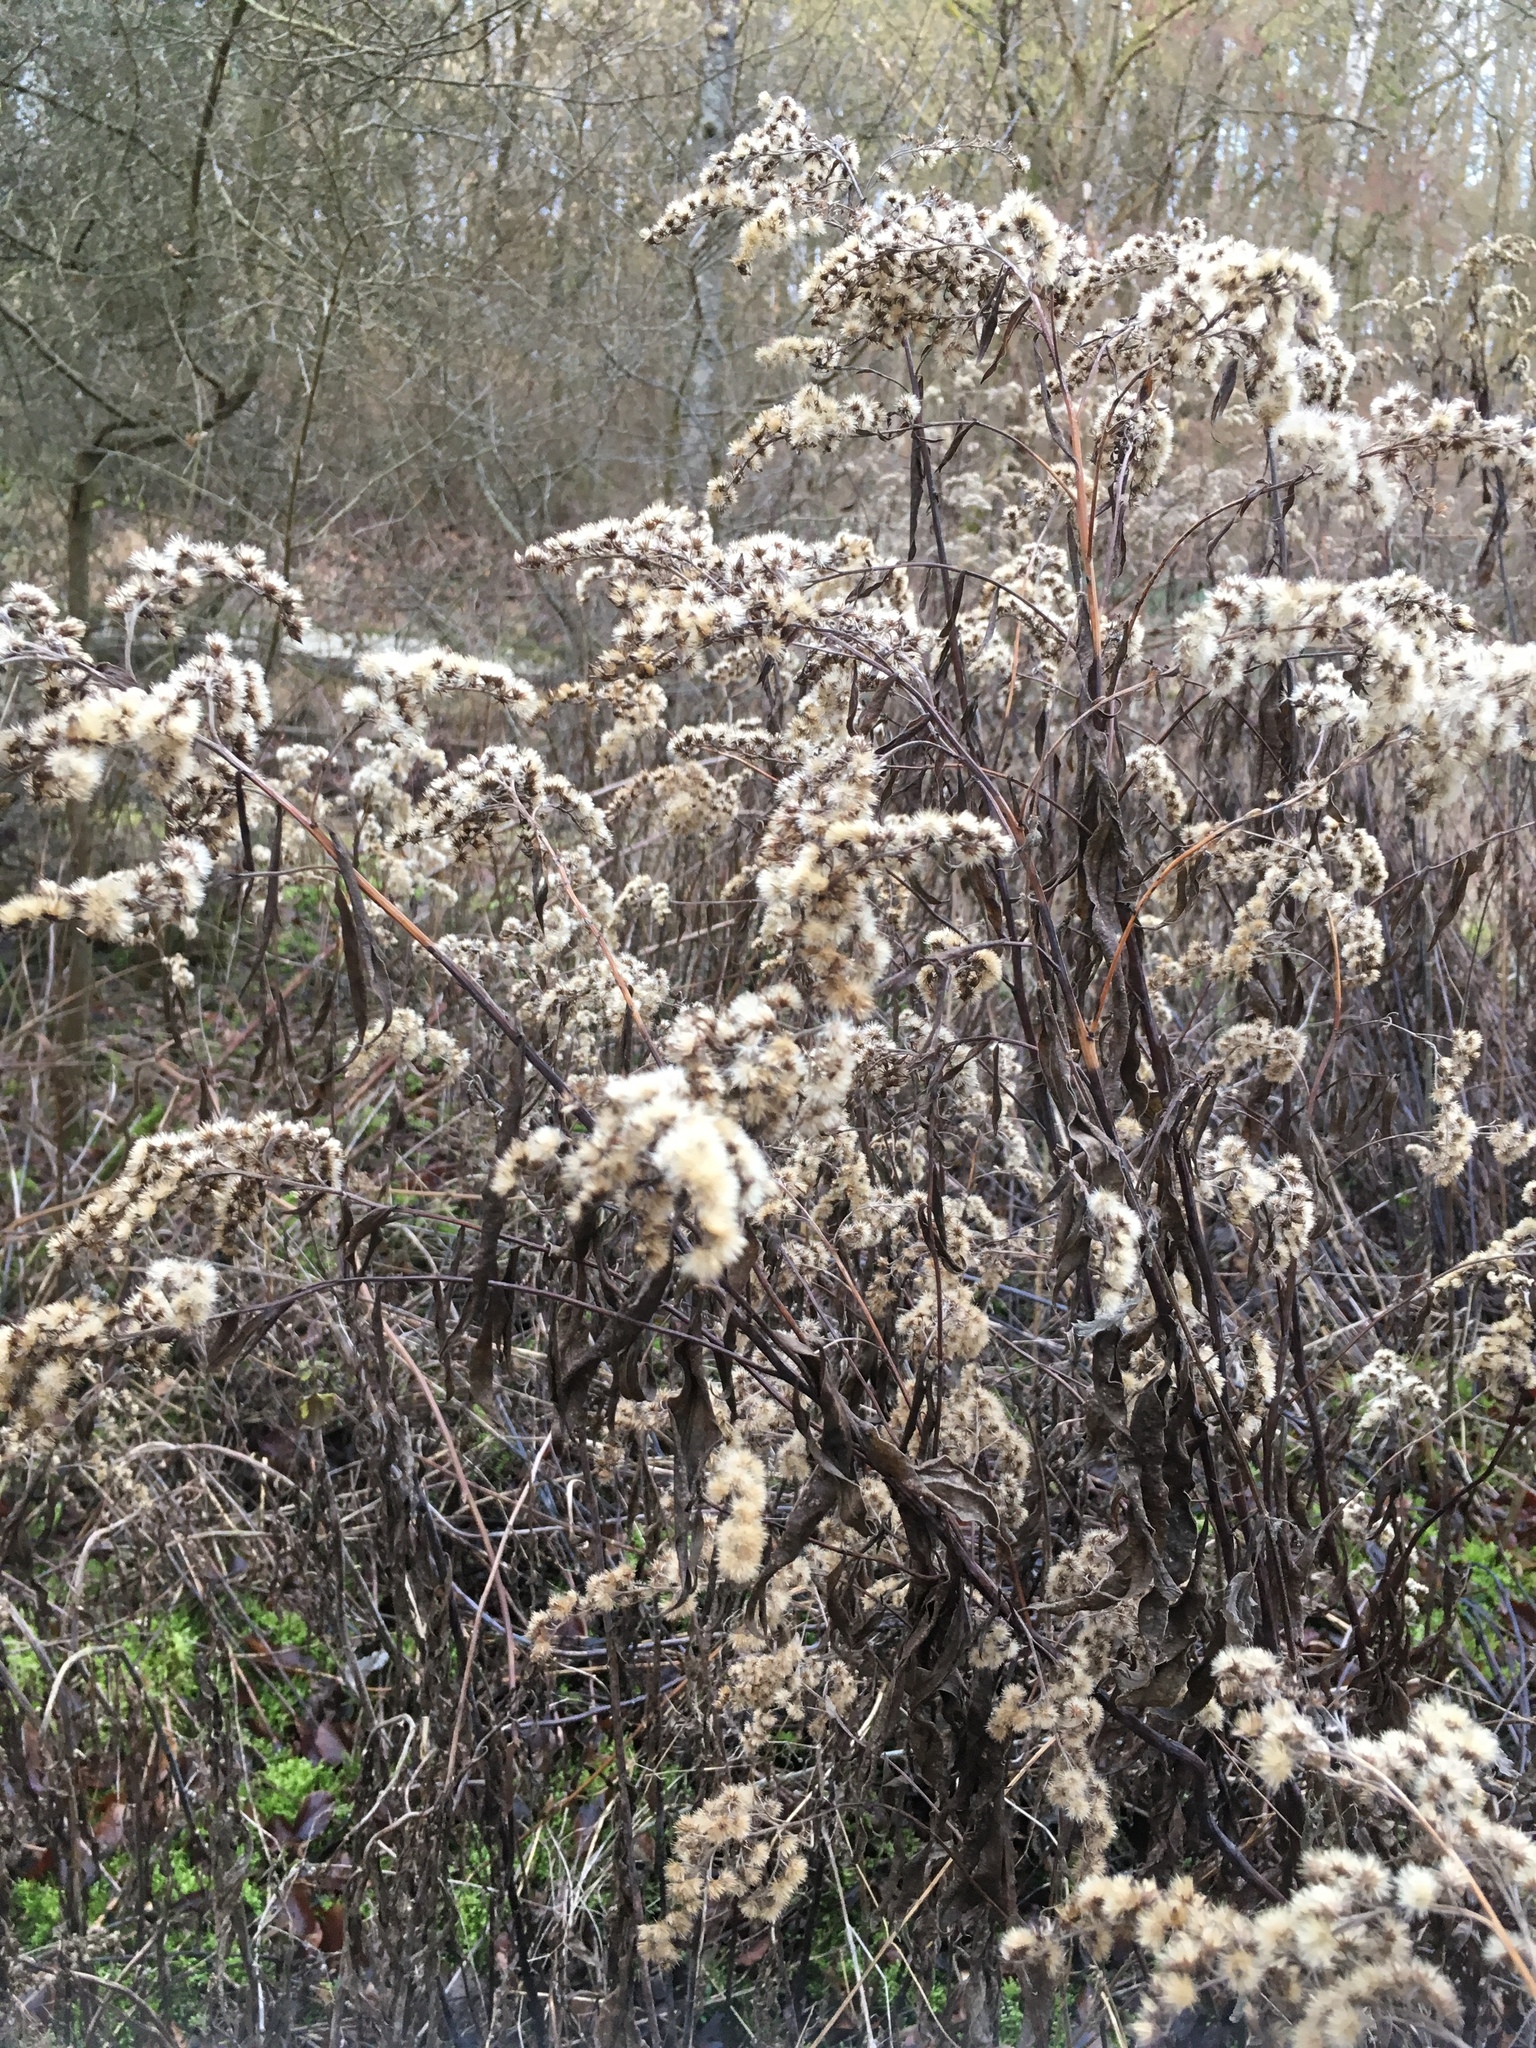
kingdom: Plantae
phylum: Tracheophyta
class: Magnoliopsida
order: Asterales
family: Asteraceae
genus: Solidago
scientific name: Solidago canadensis
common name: Canada goldenrod
